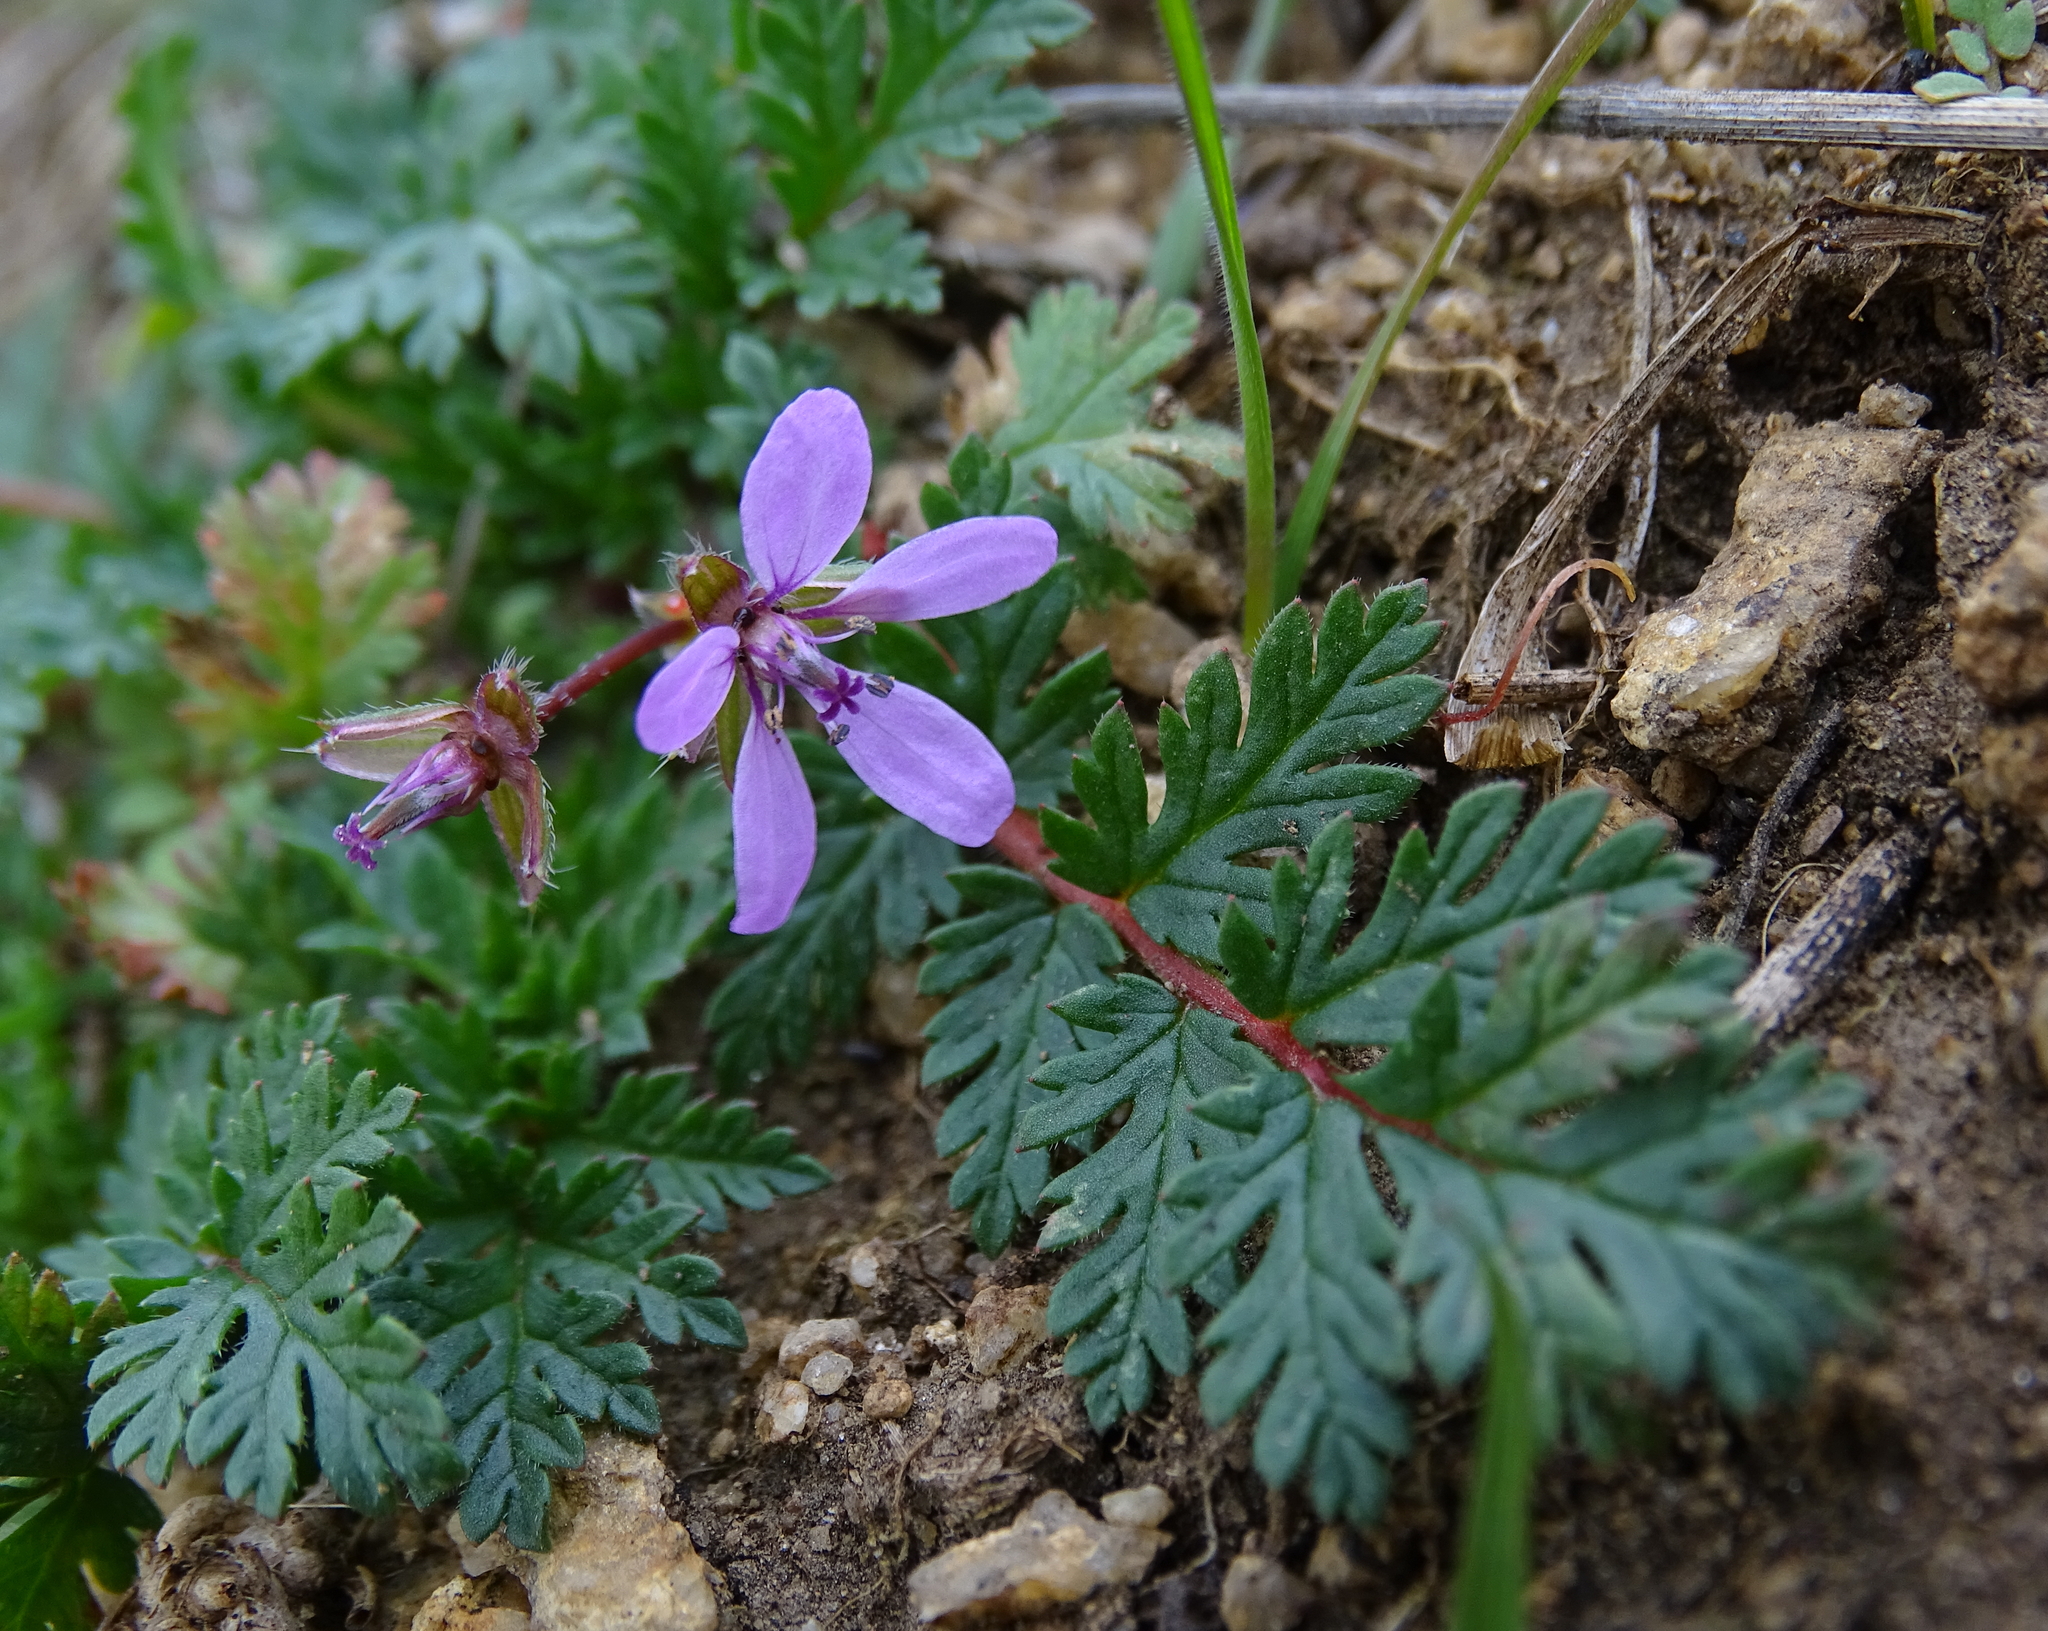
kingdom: Plantae
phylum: Tracheophyta
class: Magnoliopsida
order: Geraniales
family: Geraniaceae
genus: Erodium
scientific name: Erodium cicutarium
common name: Common stork's-bill
